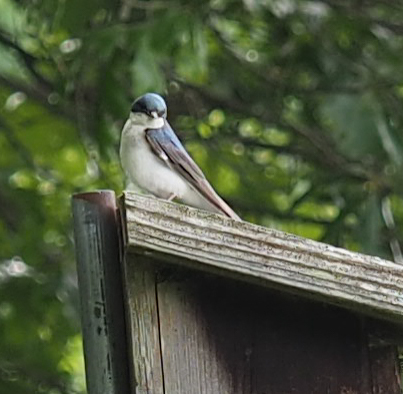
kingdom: Animalia
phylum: Chordata
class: Aves
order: Passeriformes
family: Hirundinidae
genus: Tachycineta
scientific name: Tachycineta bicolor
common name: Tree swallow
